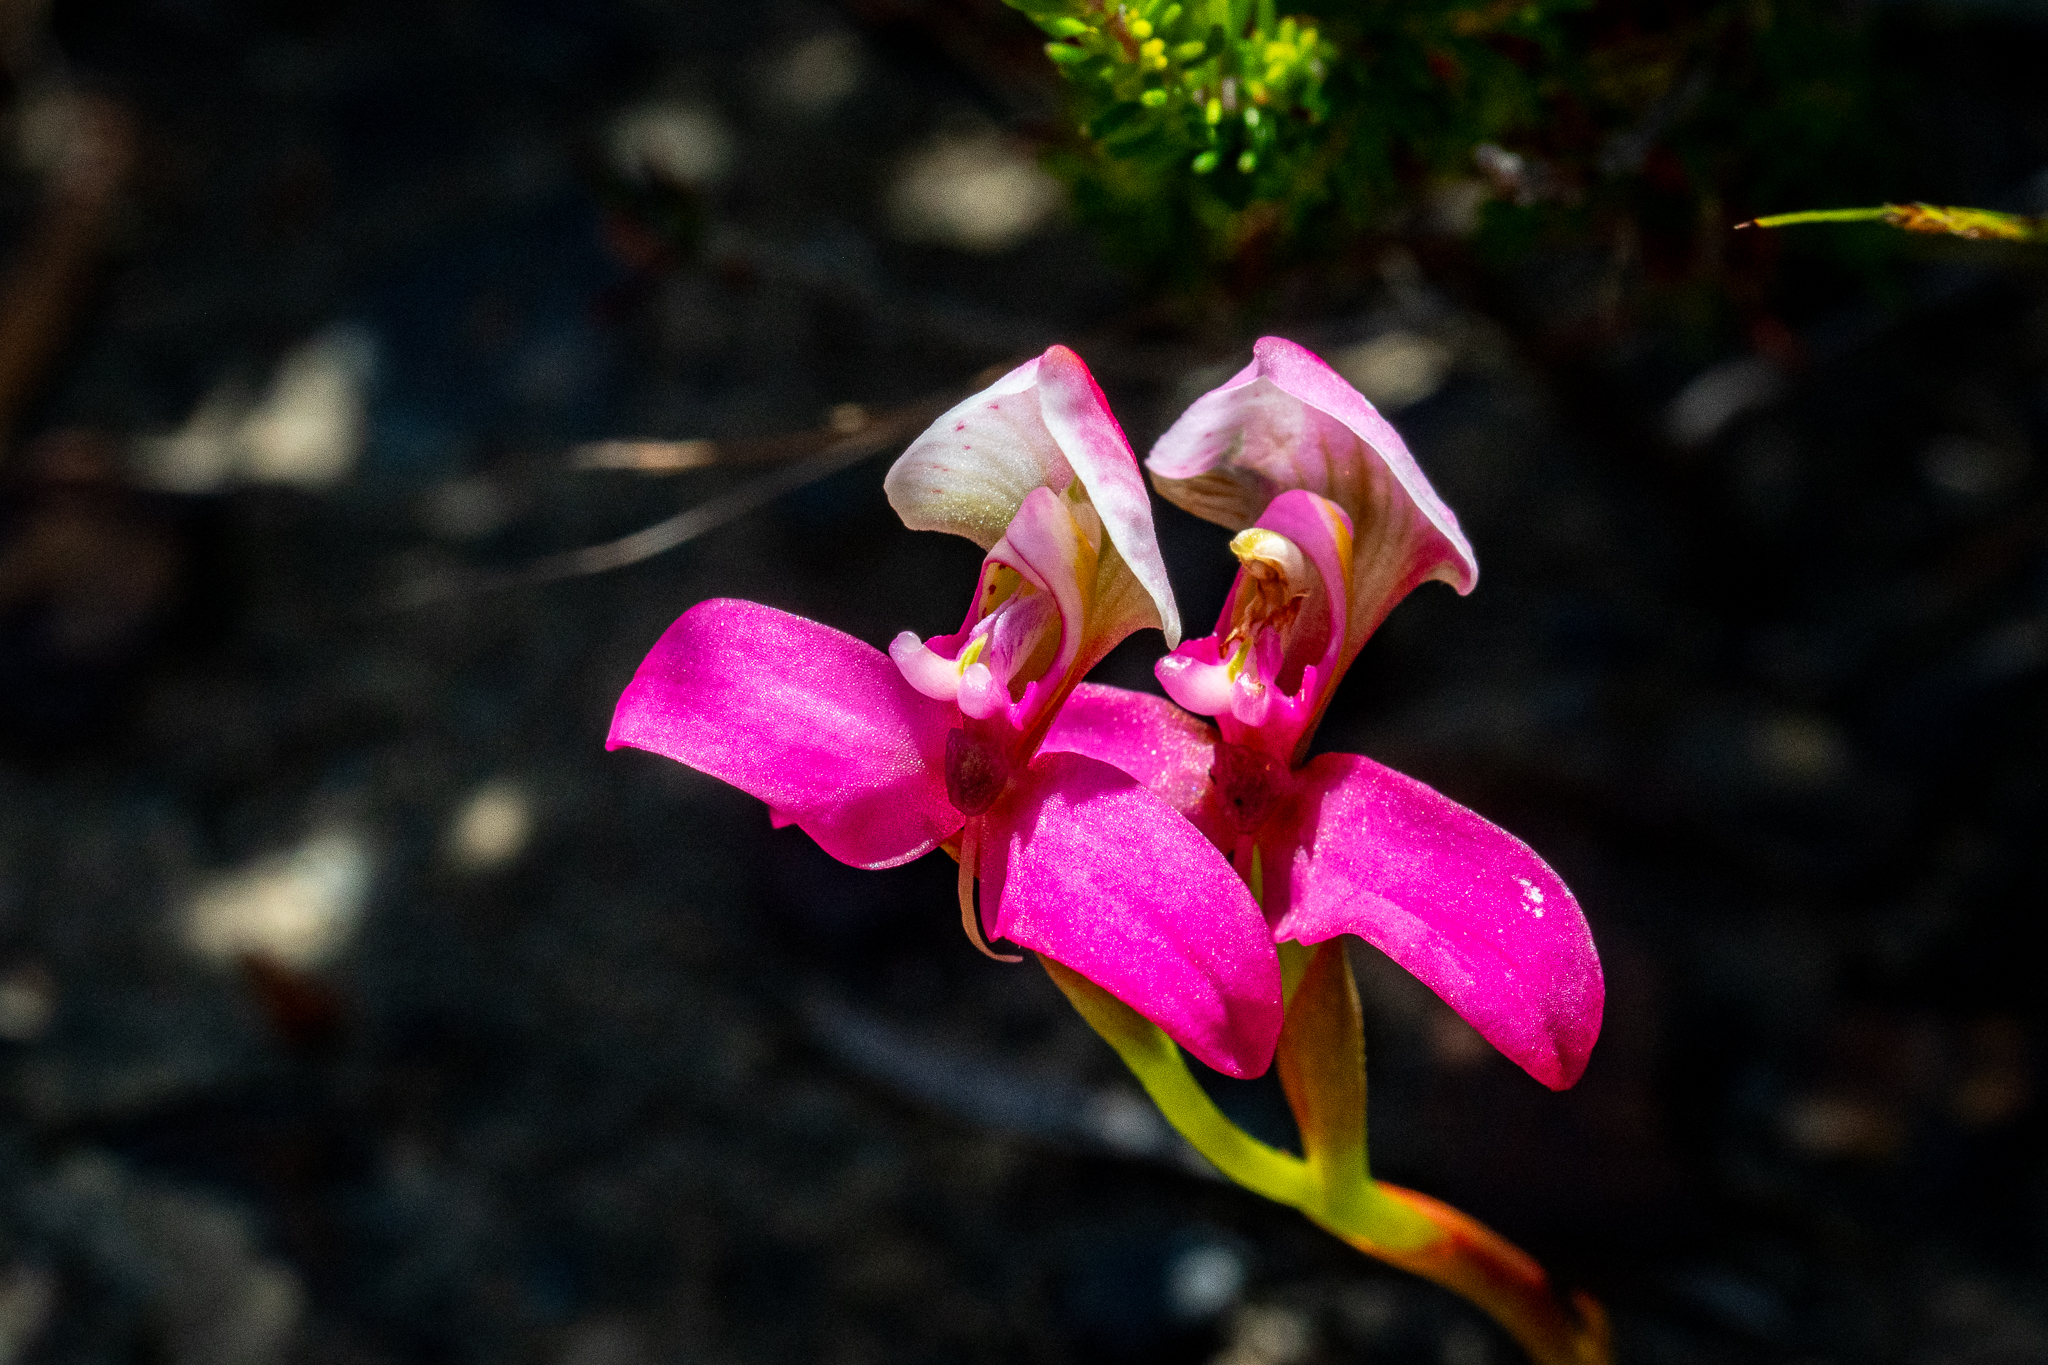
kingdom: Plantae
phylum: Tracheophyta
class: Liliopsida
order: Asparagales
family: Orchidaceae
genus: Disa
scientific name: Disa filicornis
